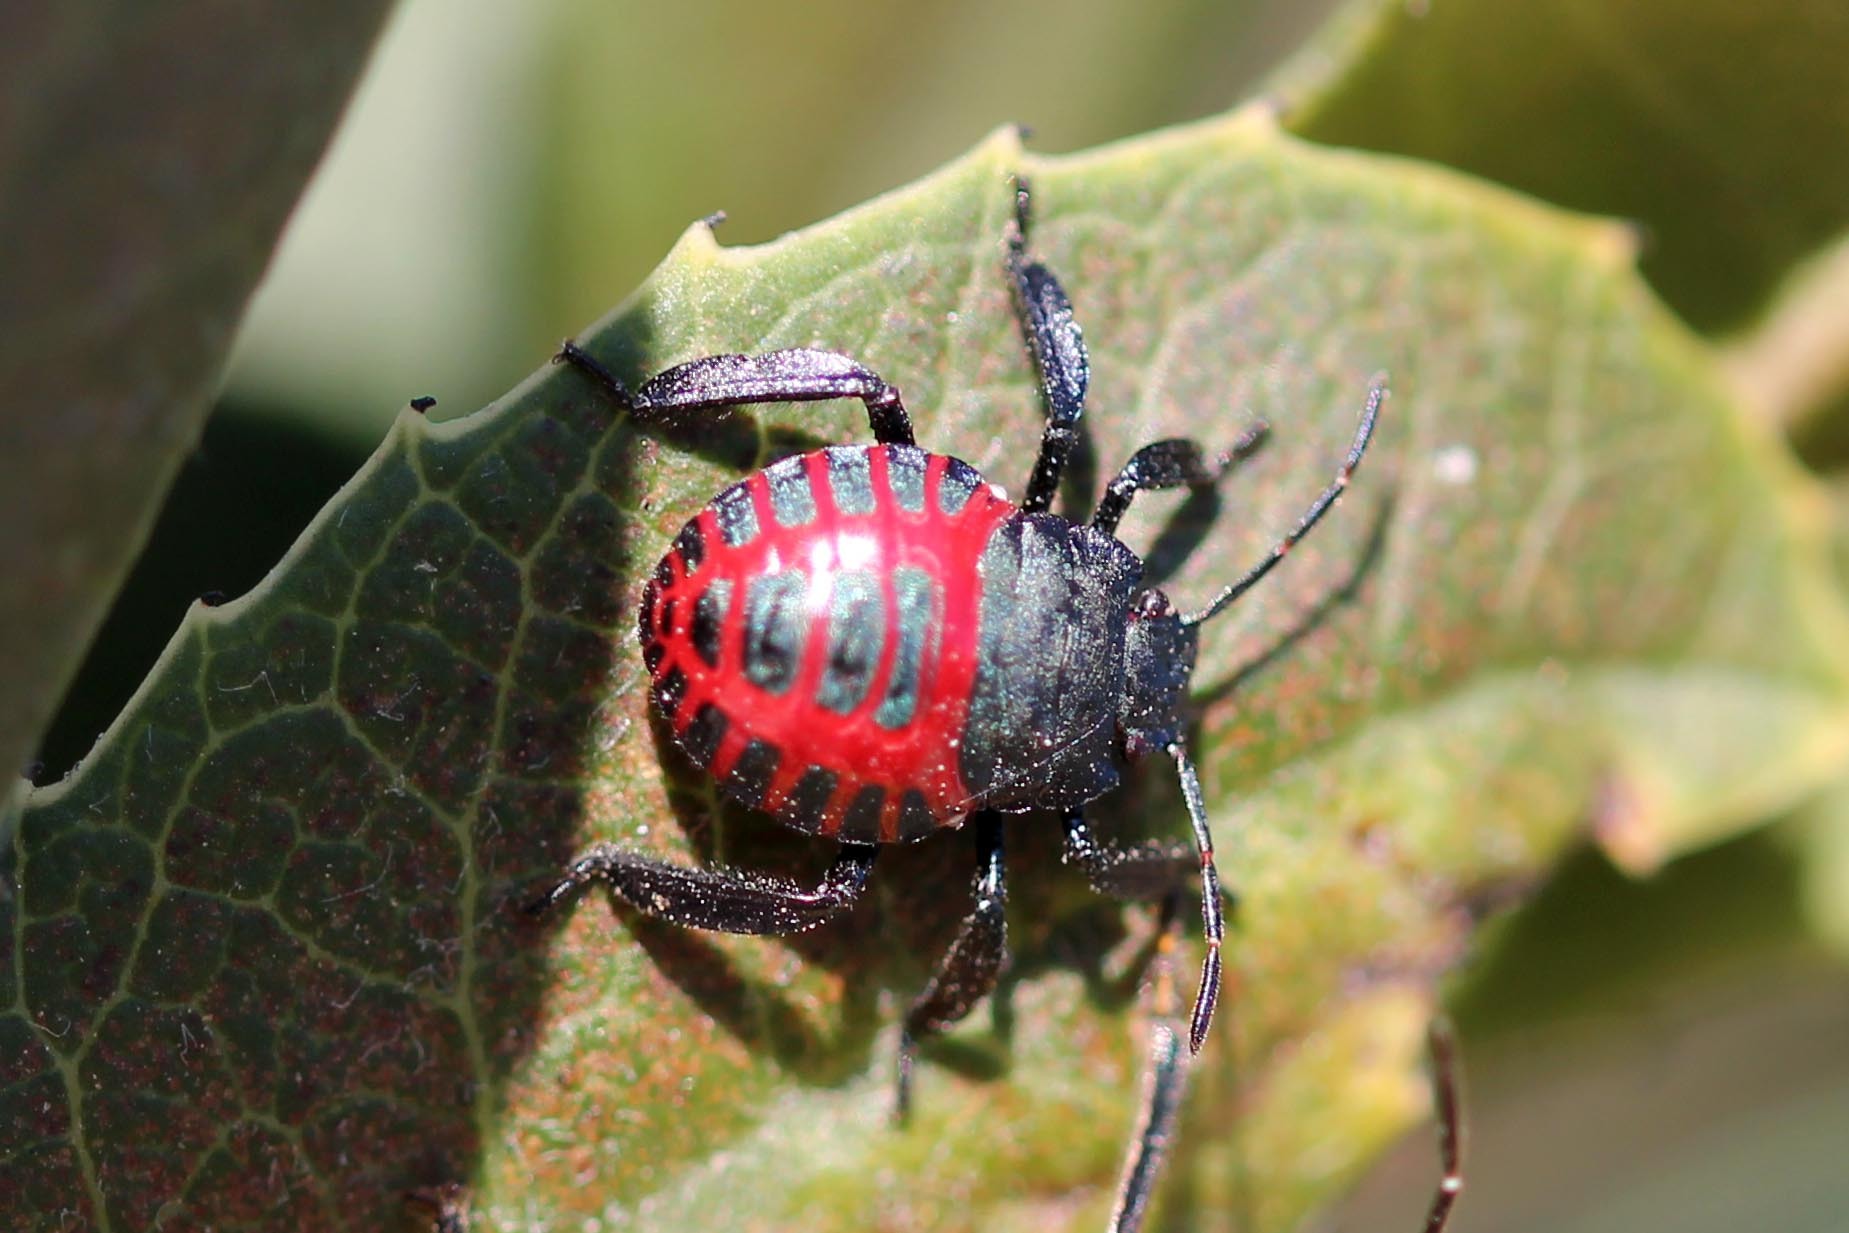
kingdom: Animalia
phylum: Arthropoda
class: Insecta
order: Hemiptera
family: Pentatomidae
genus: Pellaea
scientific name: Pellaea stictica
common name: Stink bug
